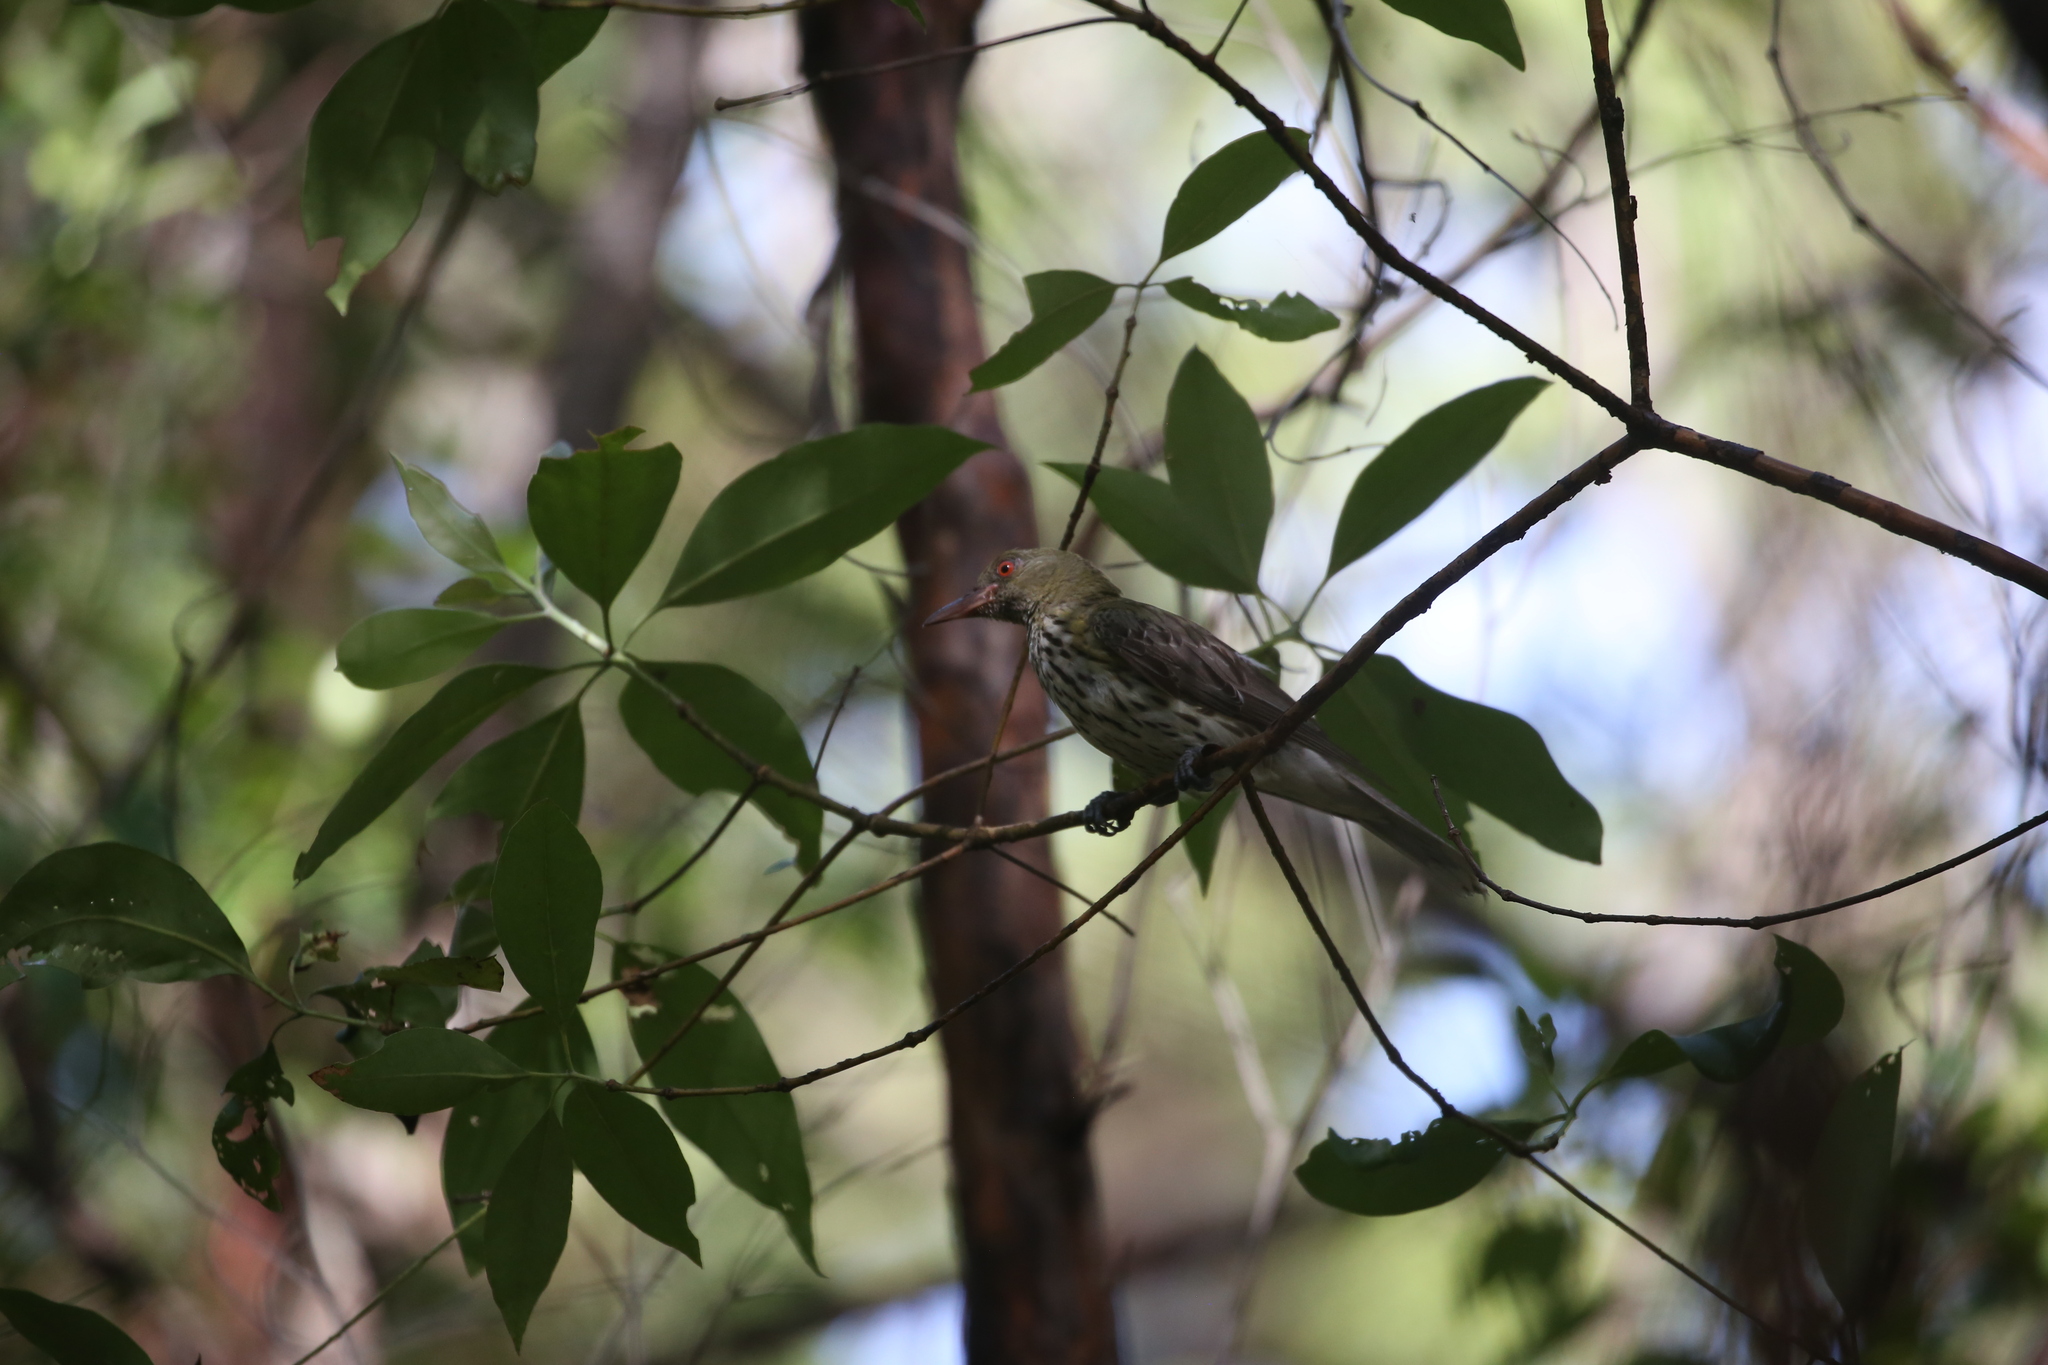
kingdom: Animalia
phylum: Chordata
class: Aves
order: Passeriformes
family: Oriolidae
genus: Oriolus
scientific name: Oriolus sagittatus
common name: Olive-backed oriole
